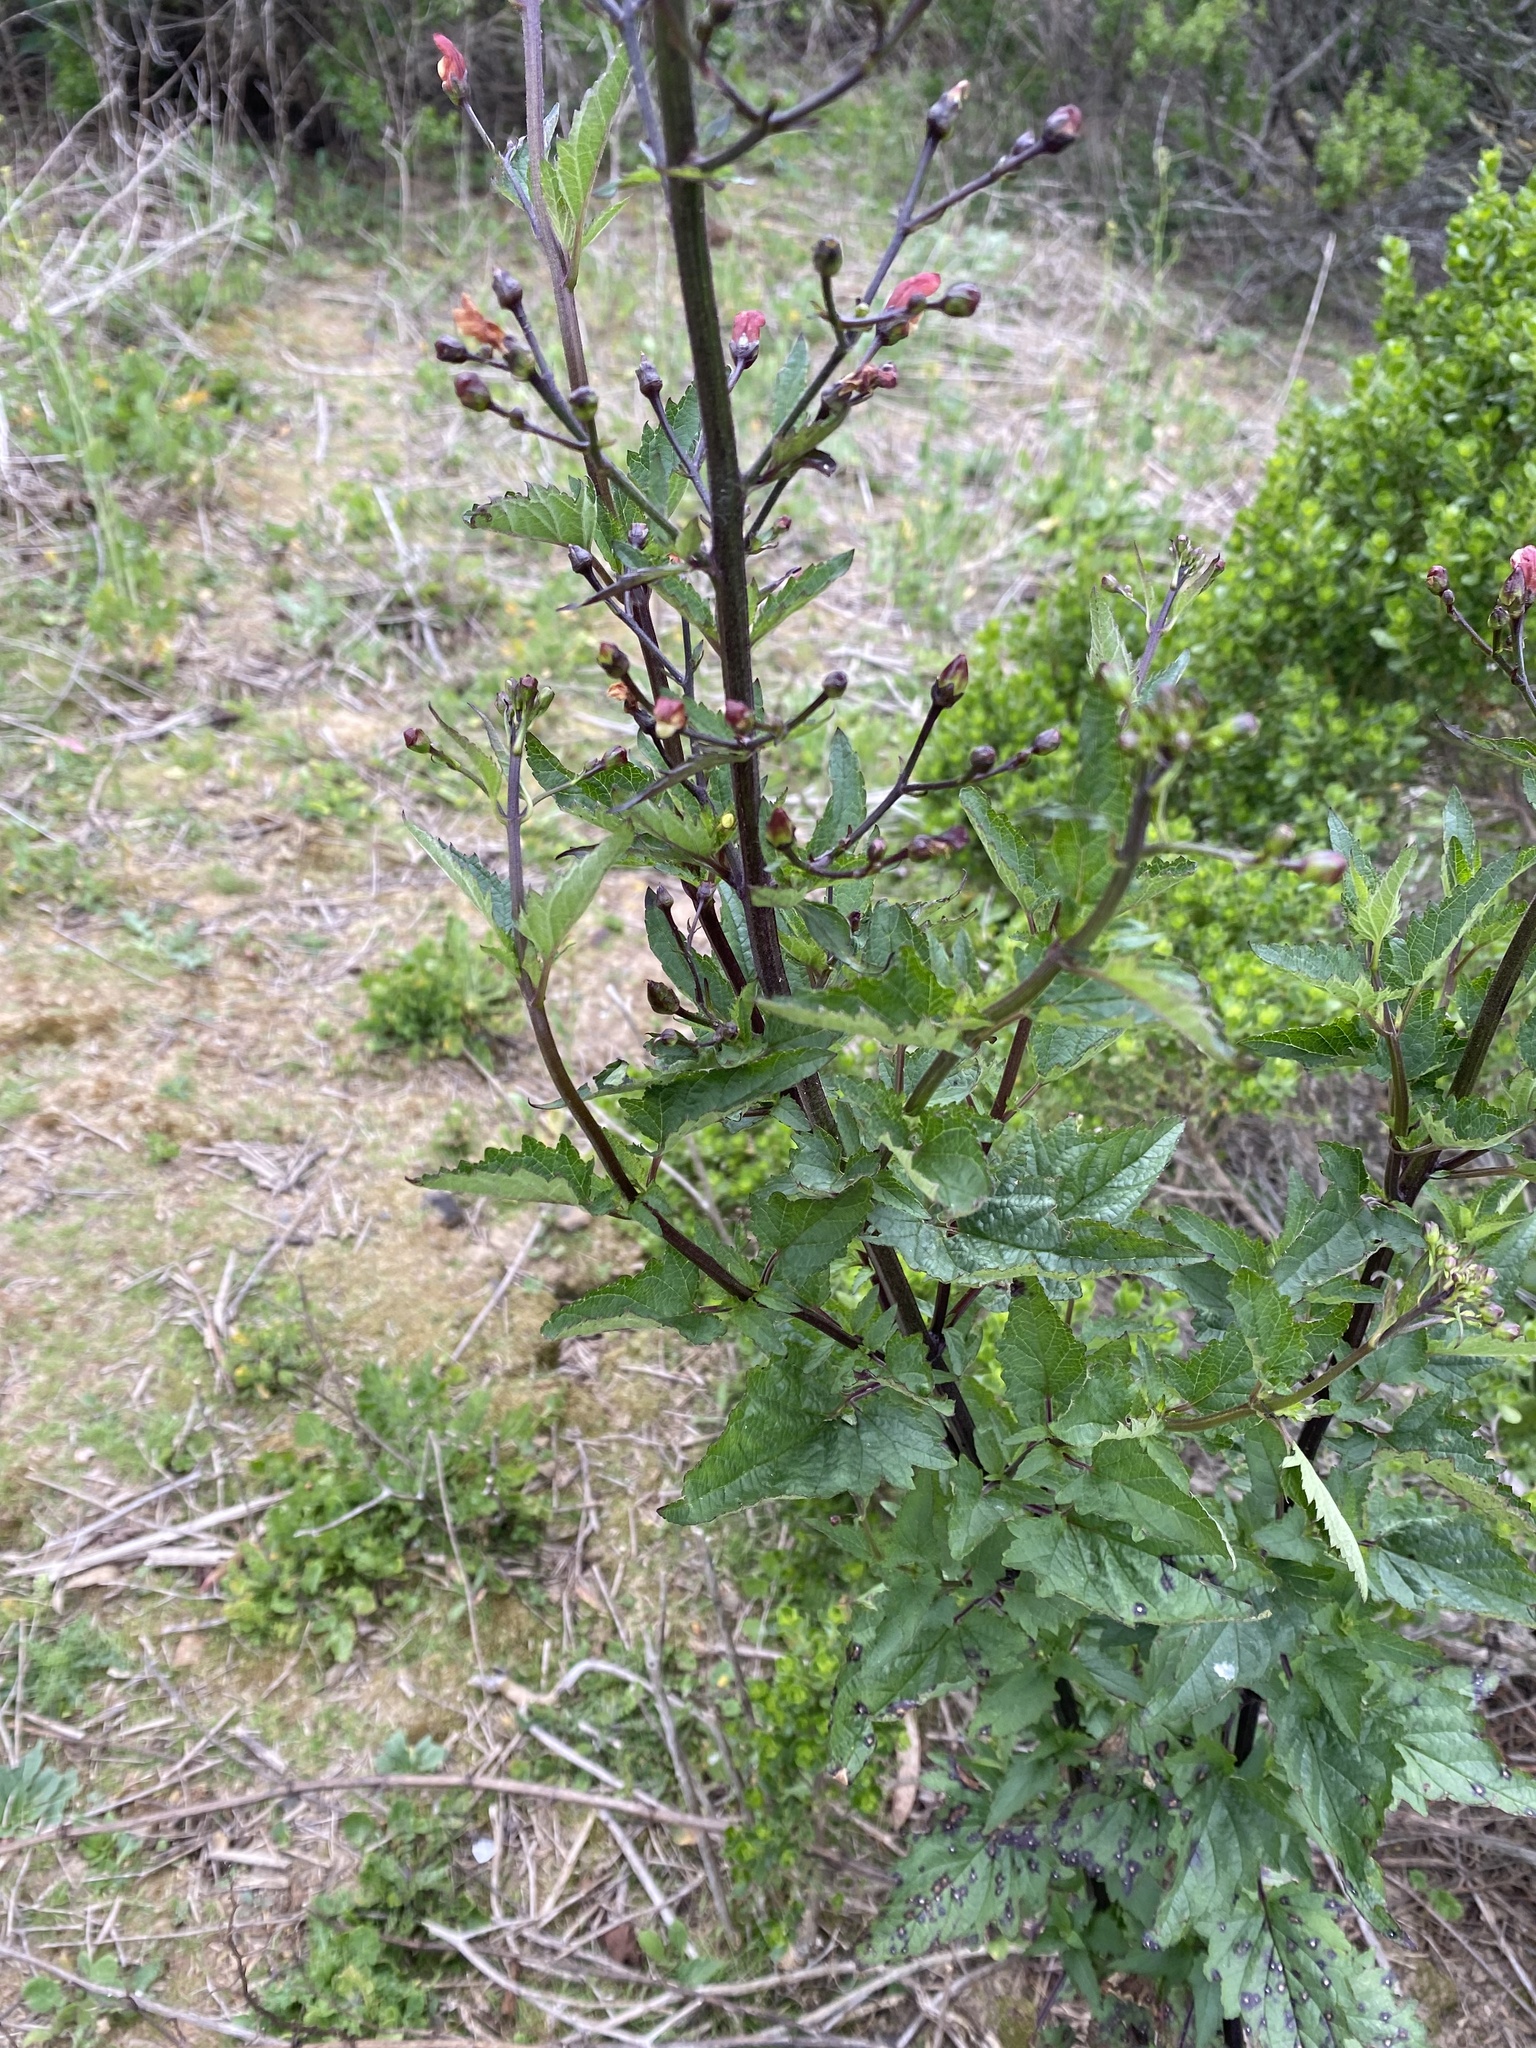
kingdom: Plantae
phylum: Tracheophyta
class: Magnoliopsida
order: Lamiales
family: Scrophulariaceae
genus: Scrophularia
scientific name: Scrophularia californica
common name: California figwort
